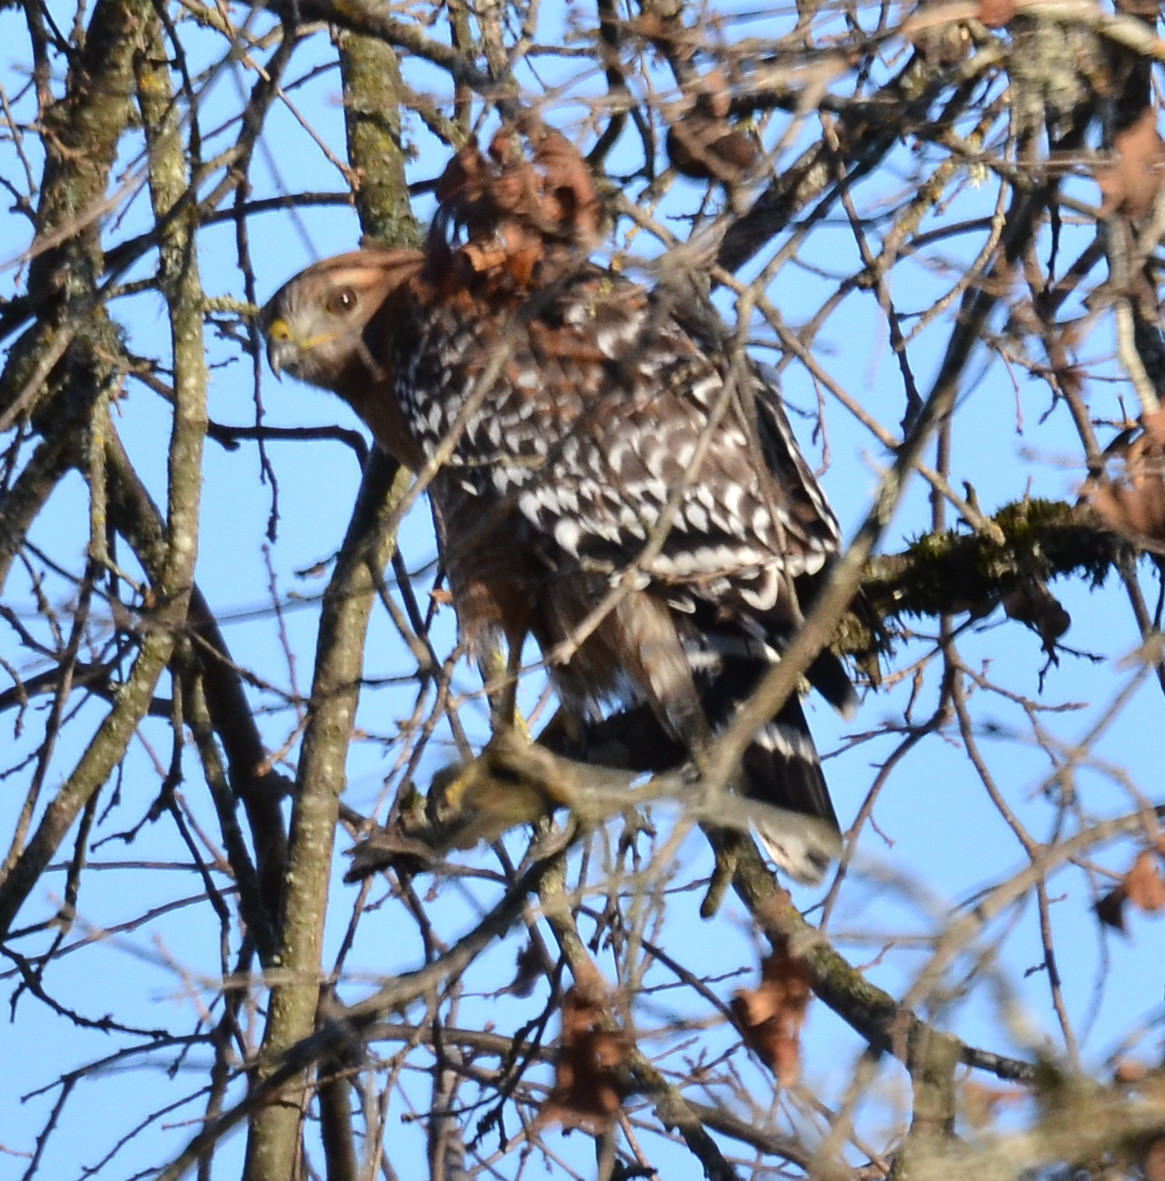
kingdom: Animalia
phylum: Chordata
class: Aves
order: Accipitriformes
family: Accipitridae
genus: Buteo
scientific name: Buteo lineatus
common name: Red-shouldered hawk
